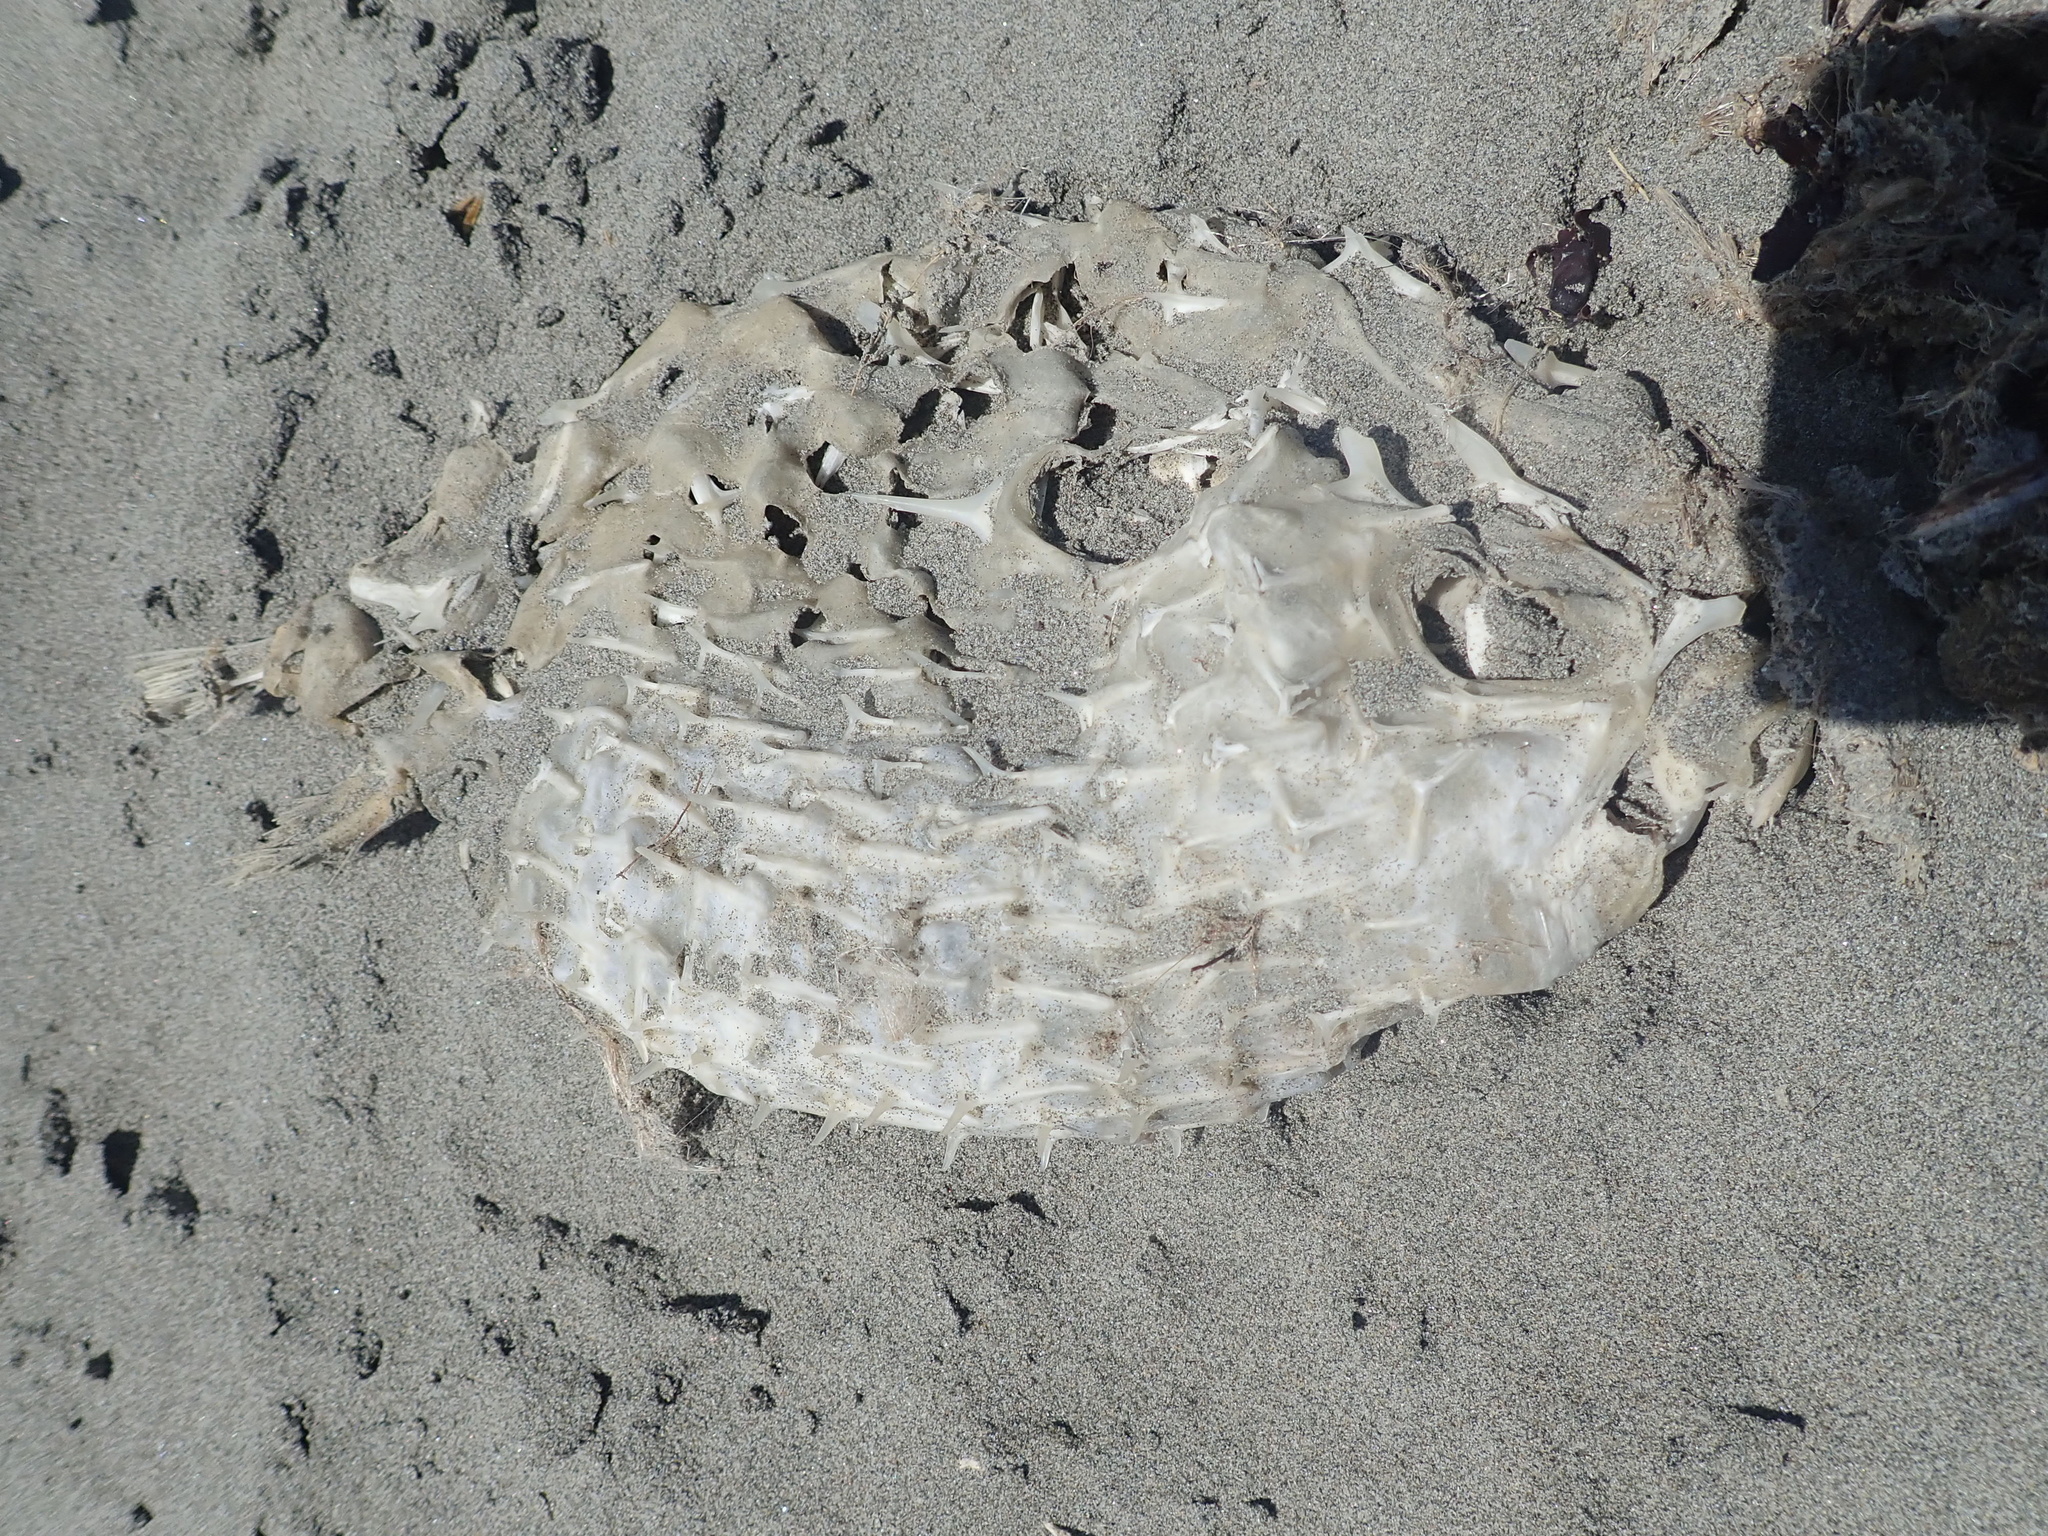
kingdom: Animalia
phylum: Chordata
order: Tetraodontiformes
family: Diodontidae
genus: Allomycterus
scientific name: Allomycterus pilatus
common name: No common name
